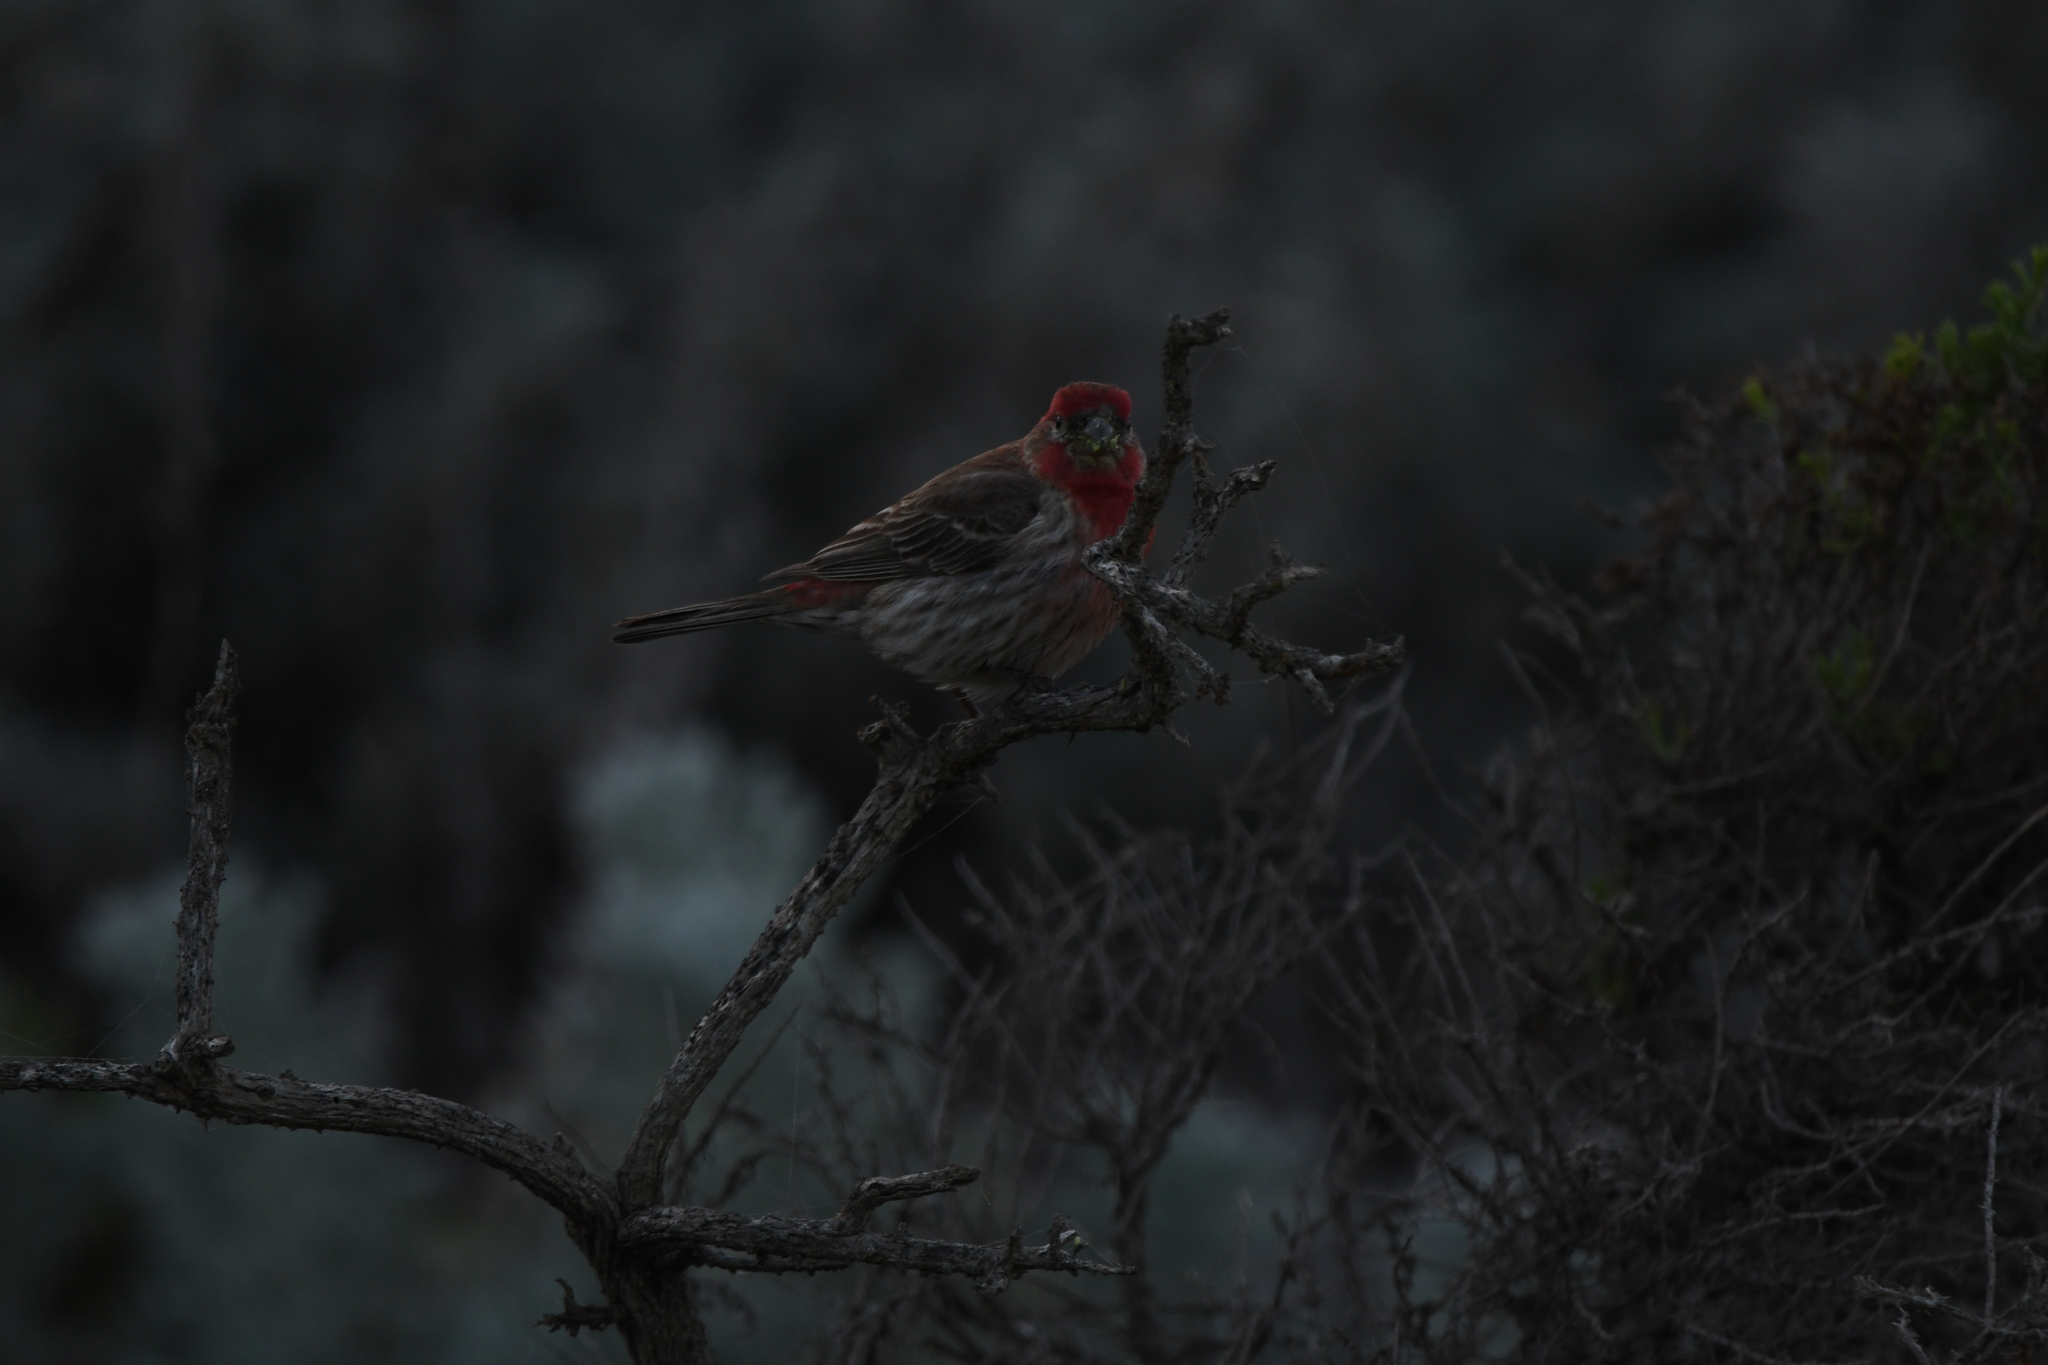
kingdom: Animalia
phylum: Chordata
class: Aves
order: Passeriformes
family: Fringillidae
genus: Haemorhous
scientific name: Haemorhous mexicanus
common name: House finch
